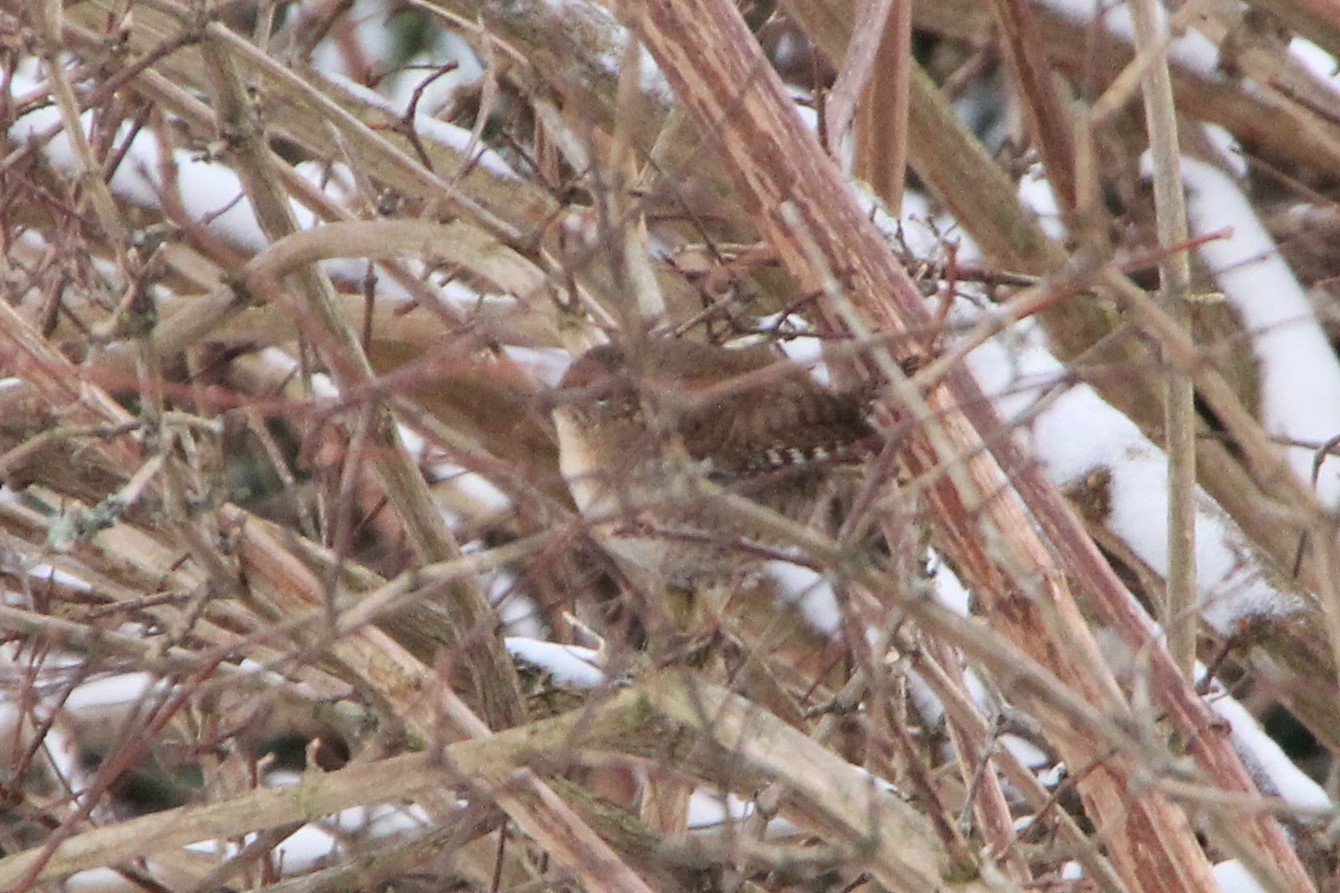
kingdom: Animalia
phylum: Chordata
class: Aves
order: Passeriformes
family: Troglodytidae
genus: Troglodytes
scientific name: Troglodytes troglodytes
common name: Eurasian wren
